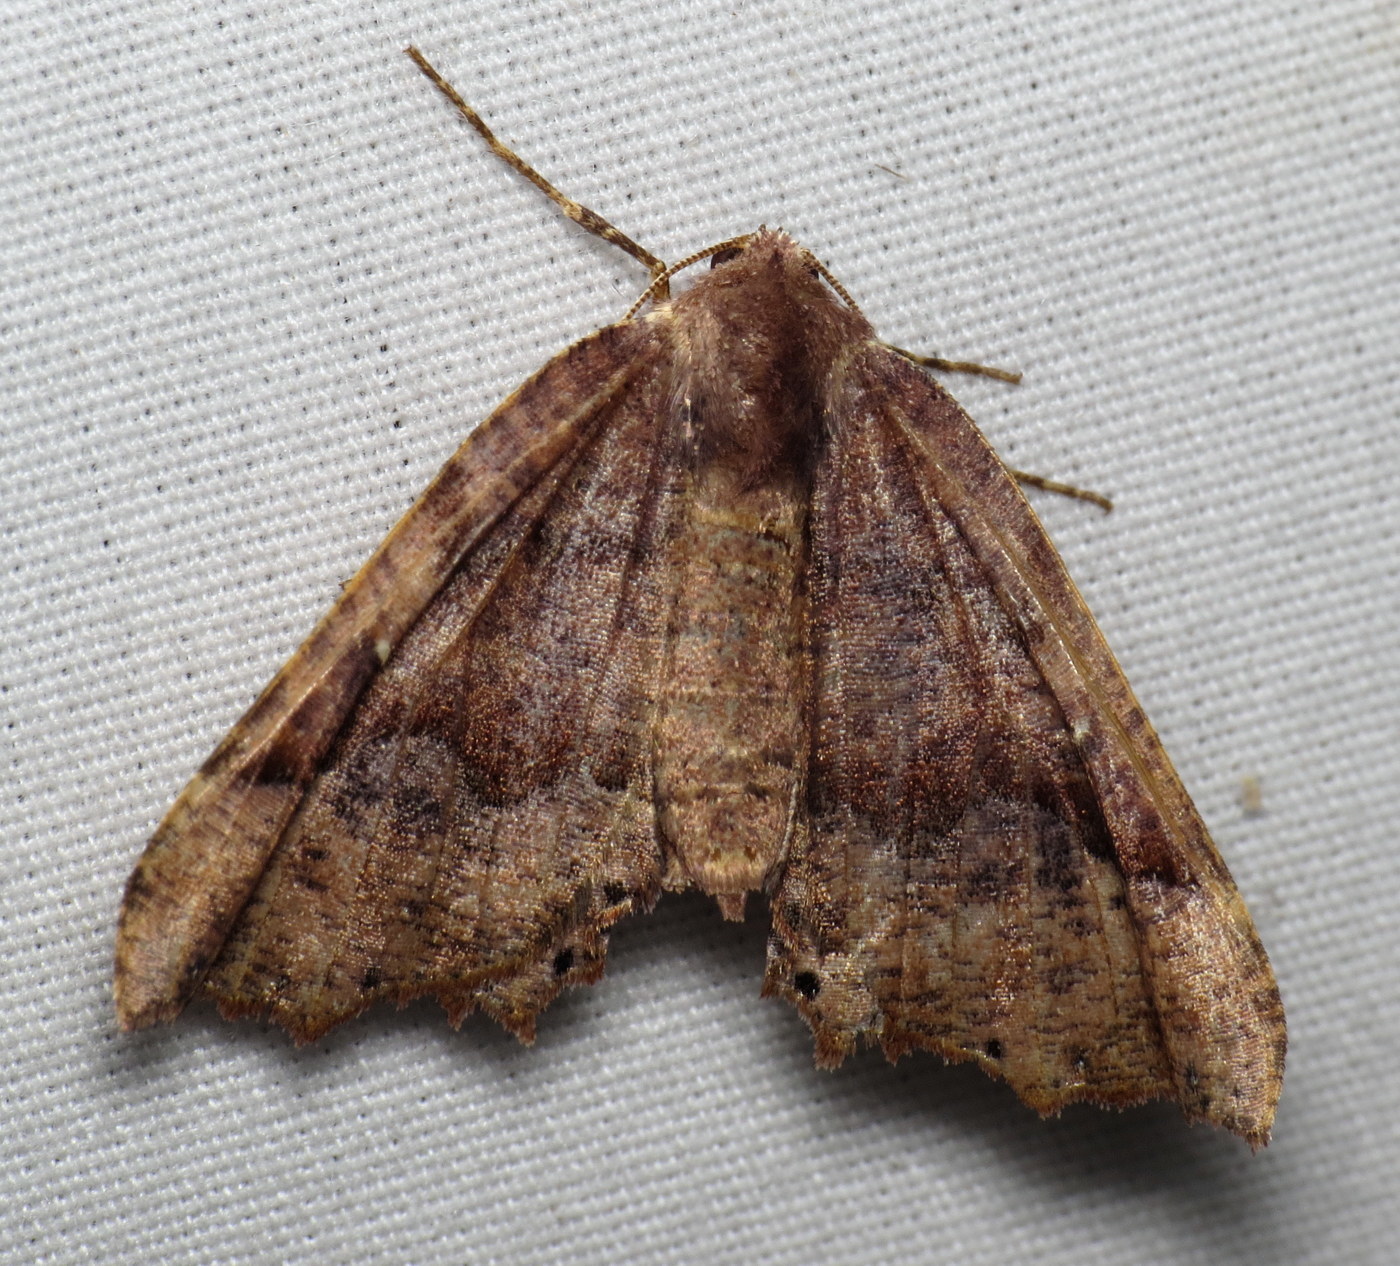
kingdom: Animalia
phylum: Arthropoda
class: Insecta
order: Lepidoptera
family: Geometridae
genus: Pero
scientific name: Pero ancetaria
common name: Hübner's pero
